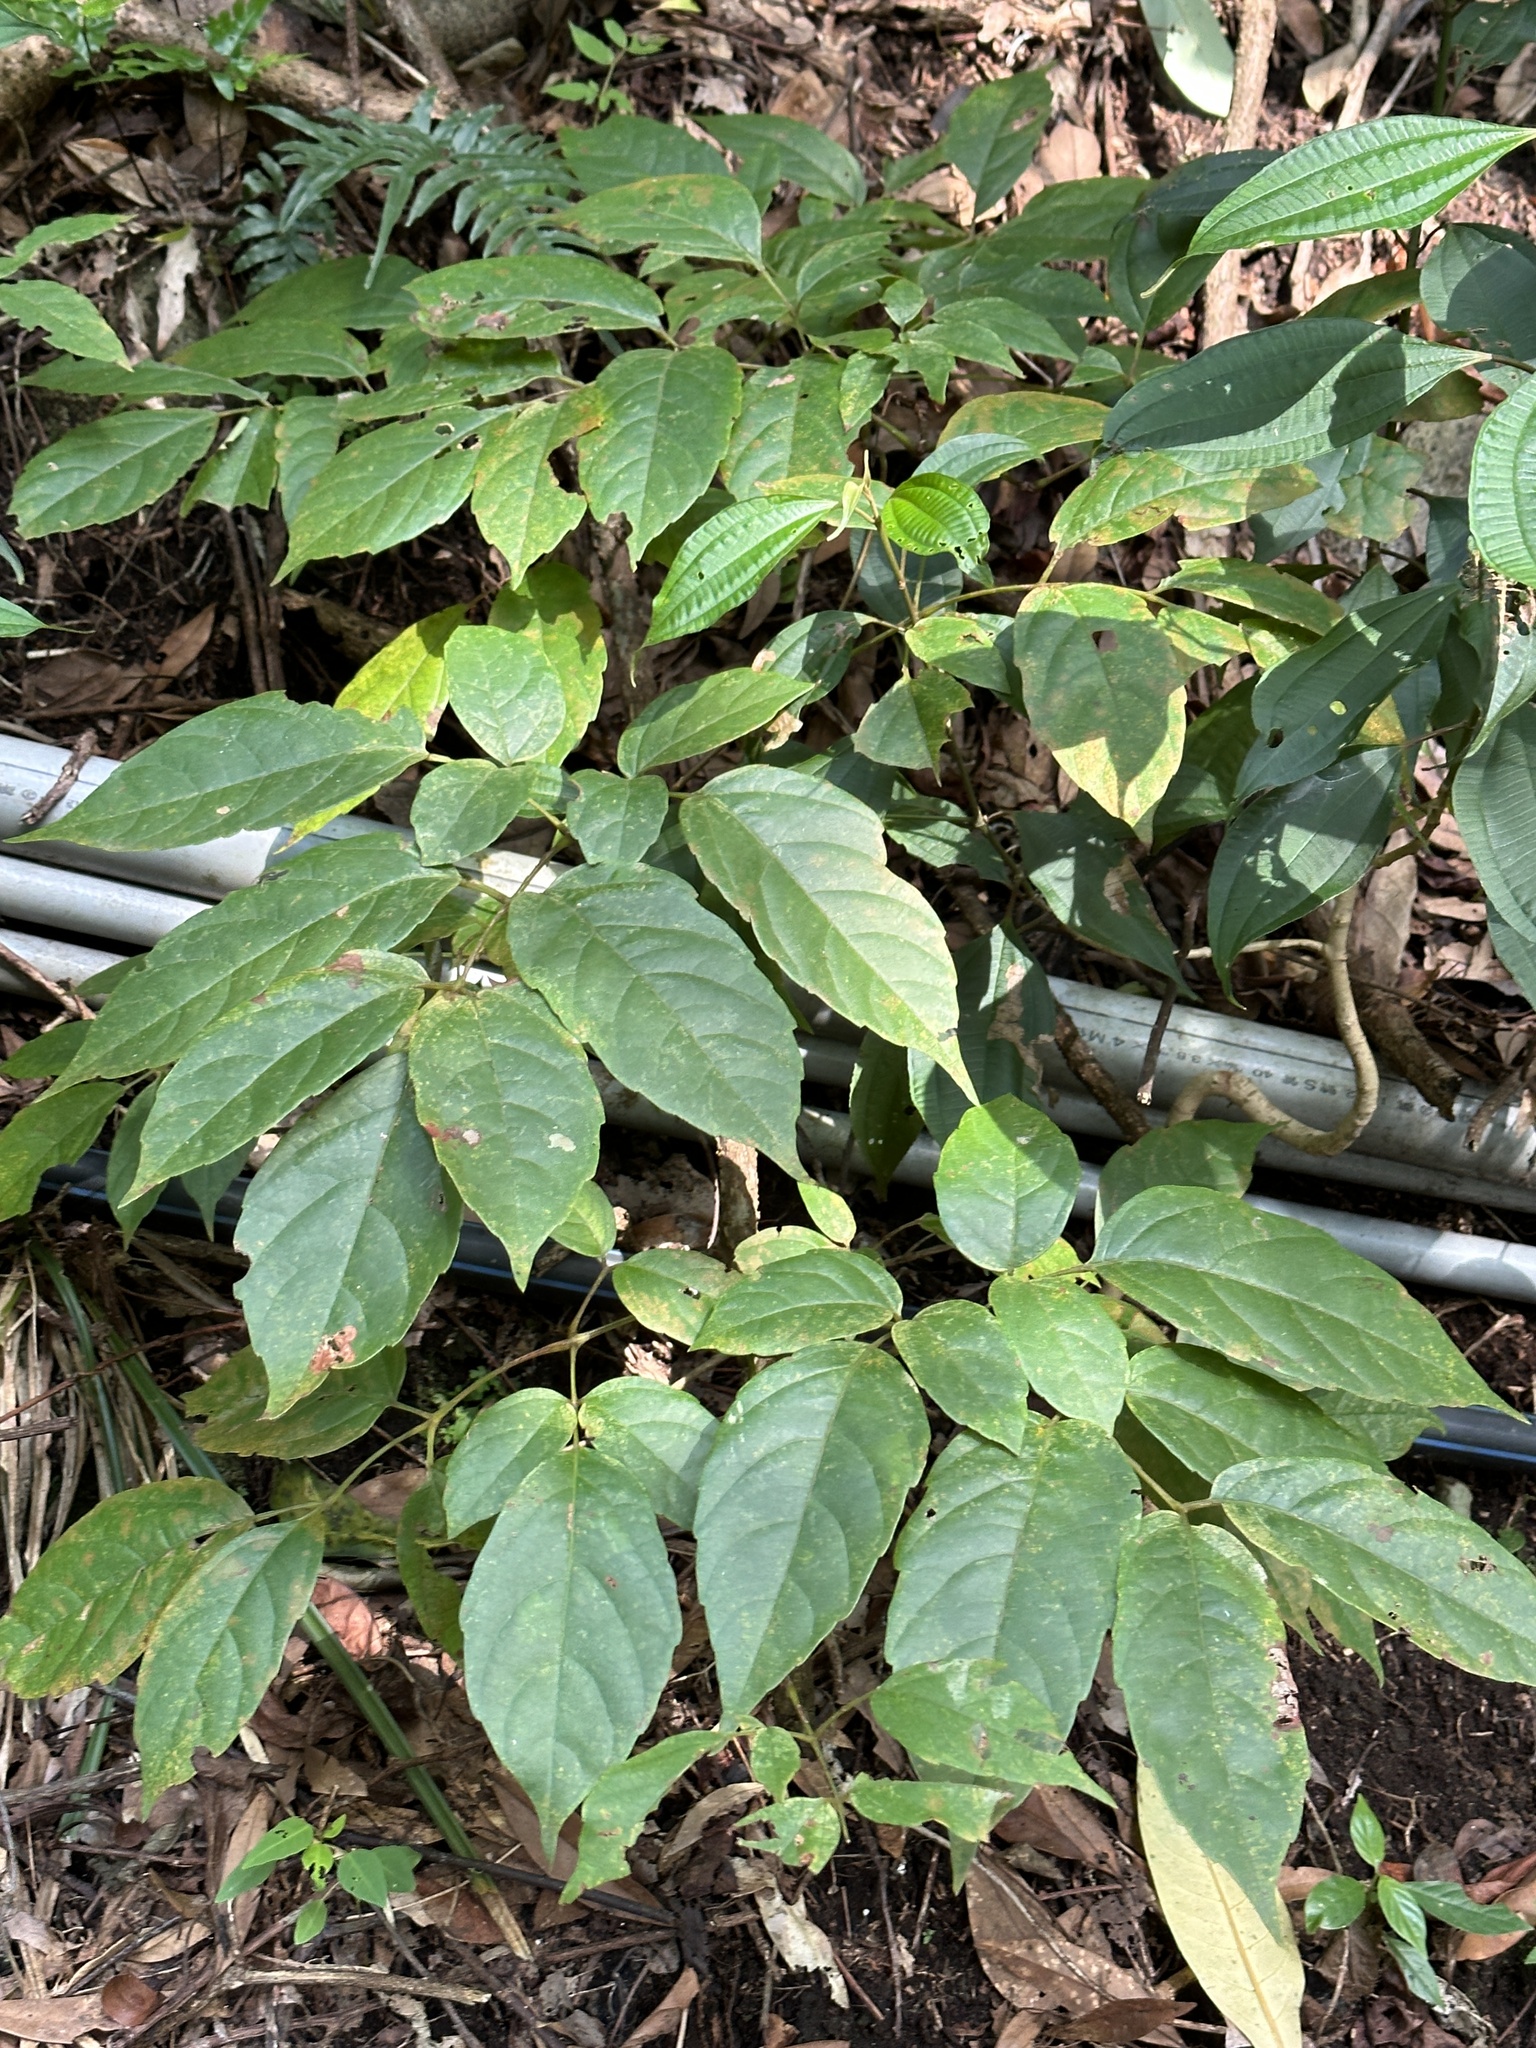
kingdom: Plantae
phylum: Tracheophyta
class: Magnoliopsida
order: Vitales
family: Vitaceae
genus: Nekemias
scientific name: Nekemias cantoniensis
